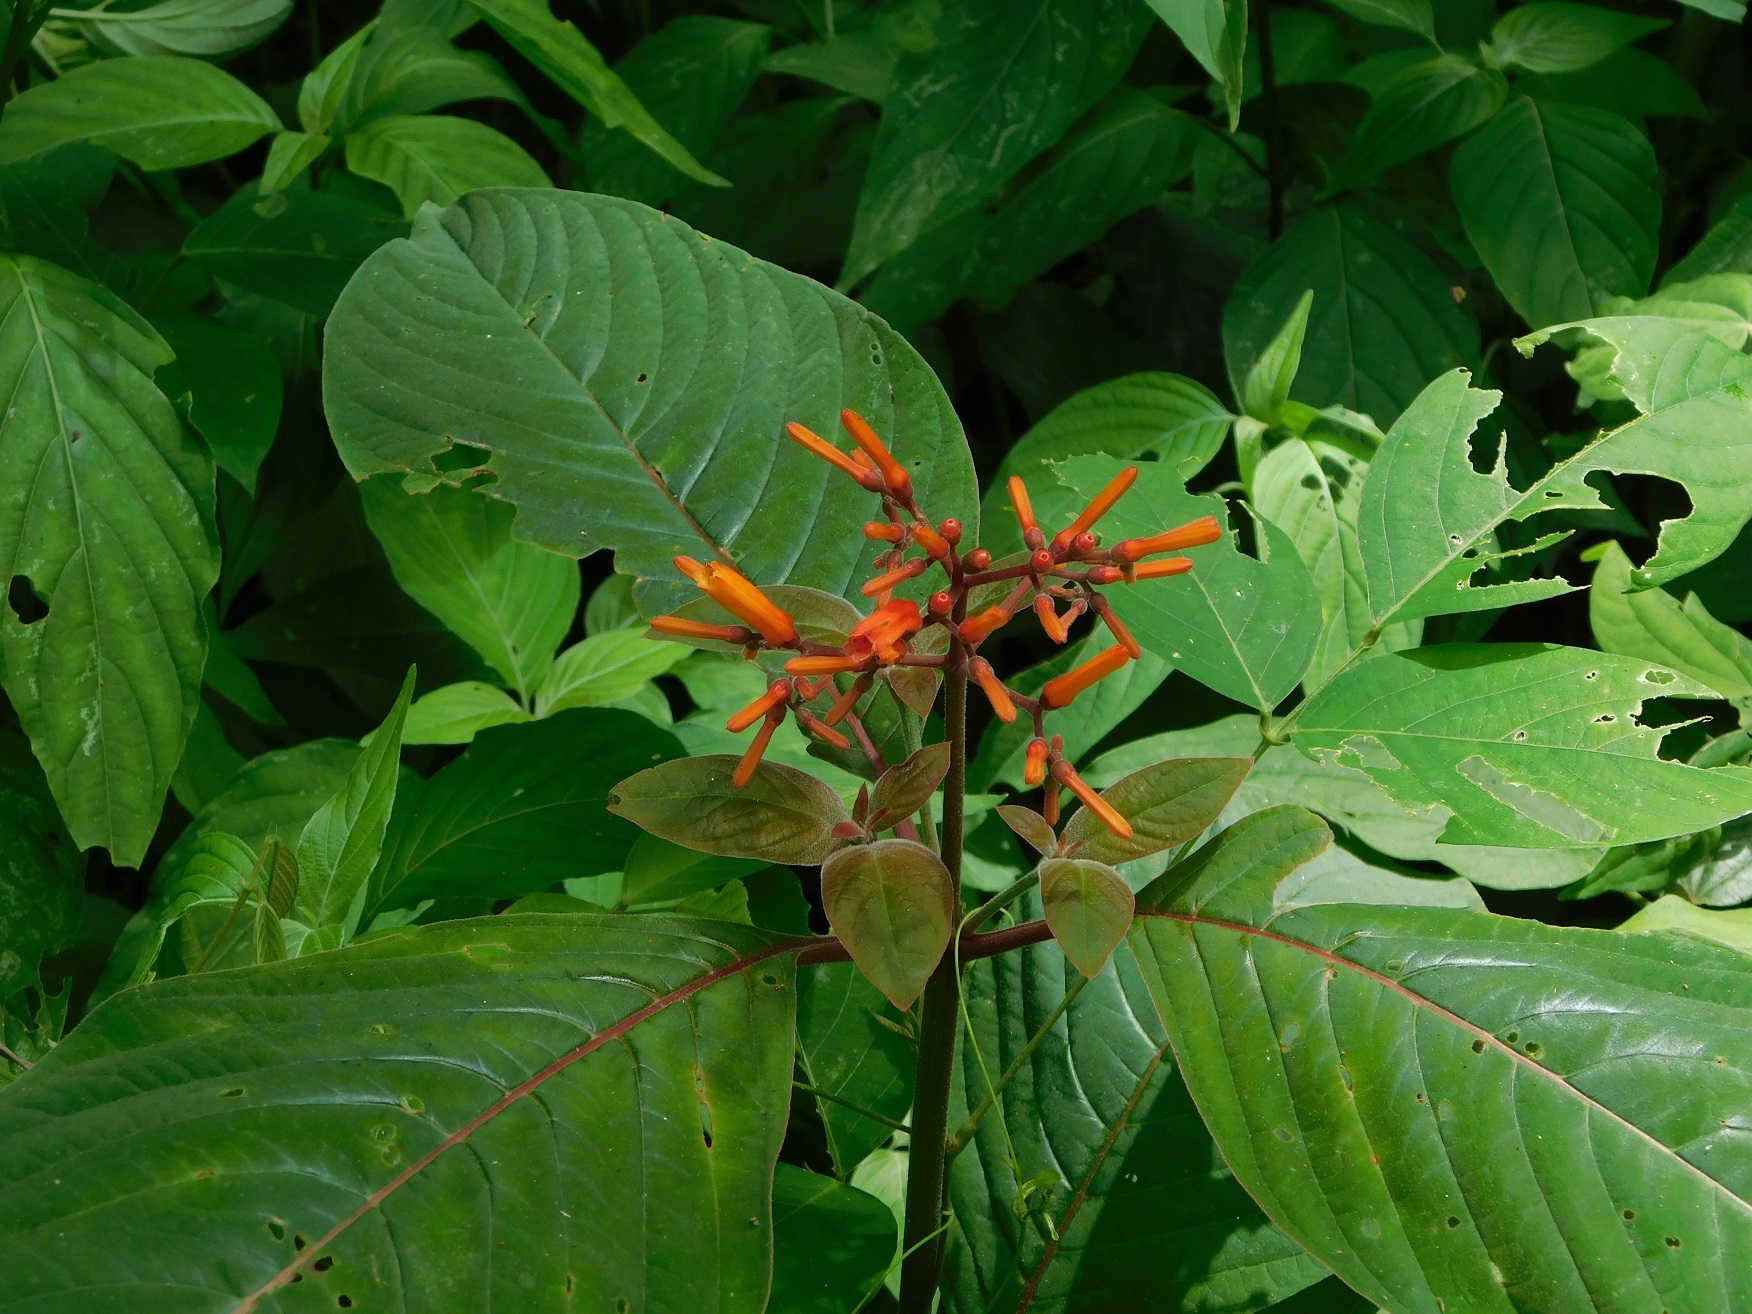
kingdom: Plantae
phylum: Tracheophyta
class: Magnoliopsida
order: Gentianales
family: Rubiaceae
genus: Hamelia
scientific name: Hamelia patens
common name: Redhead
